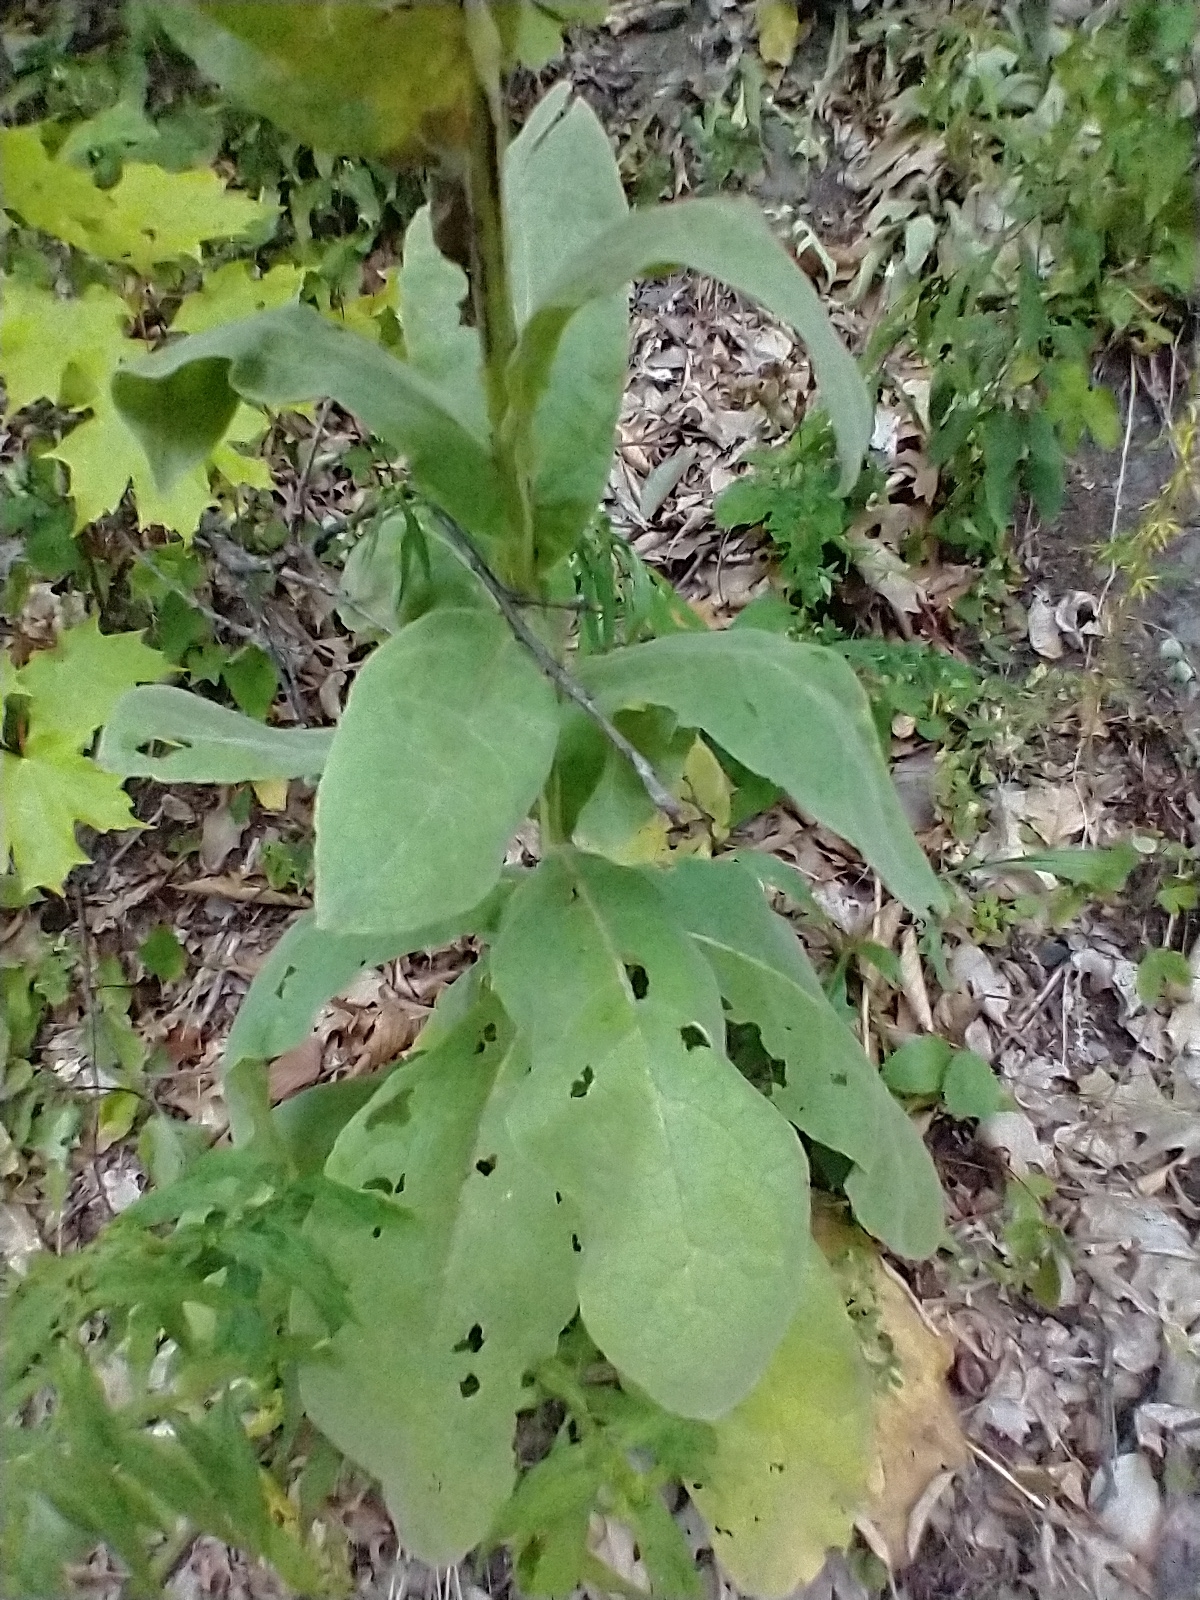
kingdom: Plantae
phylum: Tracheophyta
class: Magnoliopsida
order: Lamiales
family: Scrophulariaceae
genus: Verbascum
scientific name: Verbascum thapsus
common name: Common mullein
